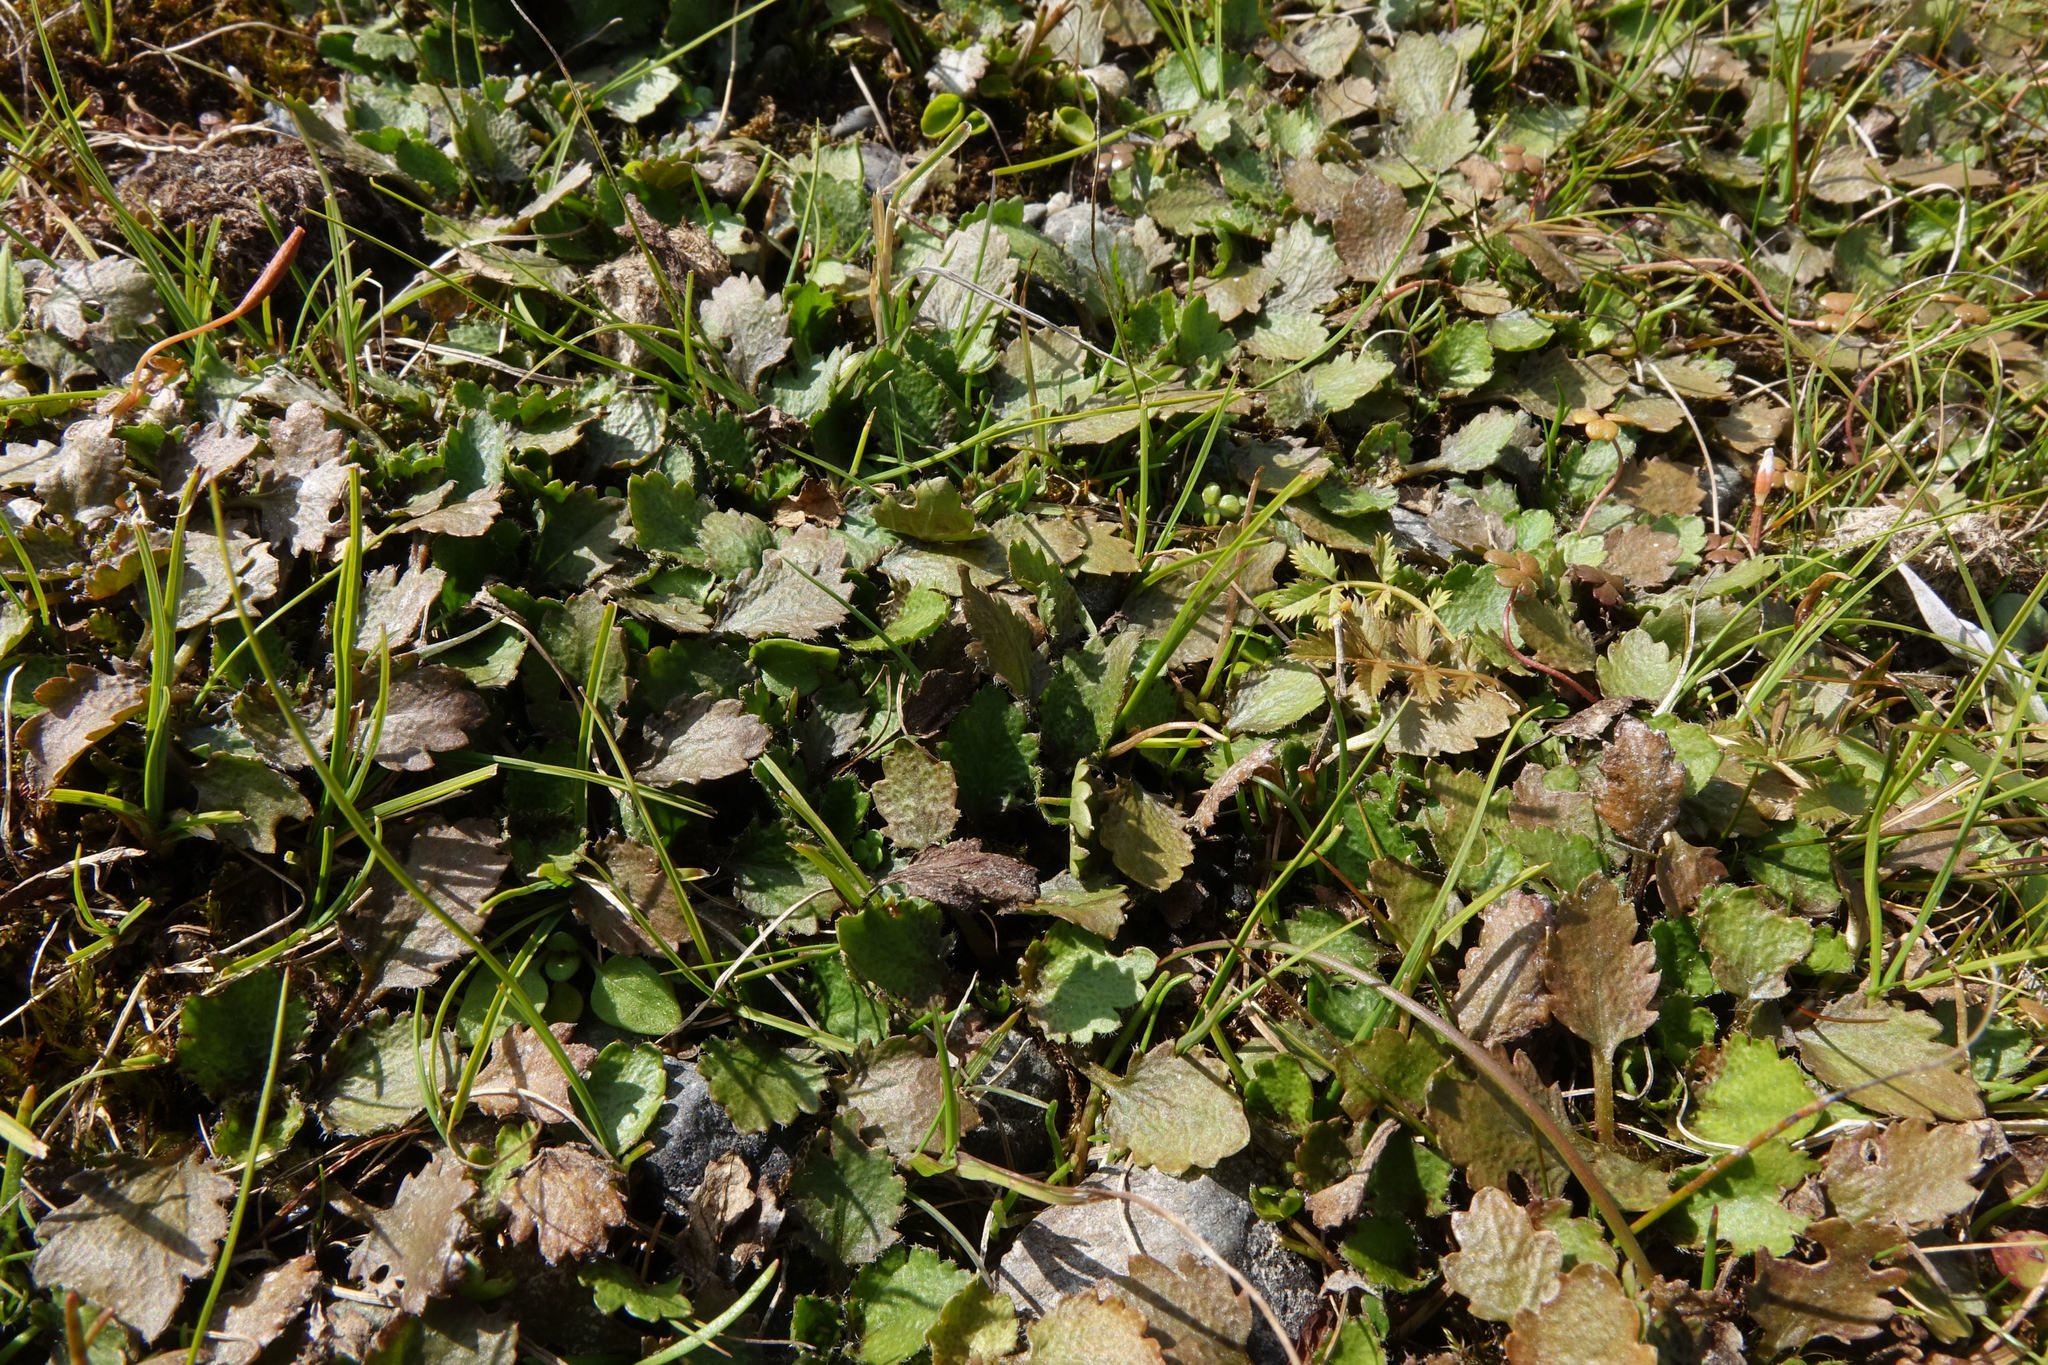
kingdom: Plantae
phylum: Tracheophyta
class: Magnoliopsida
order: Gunnerales
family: Gunneraceae
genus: Gunnera
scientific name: Gunnera dentata
